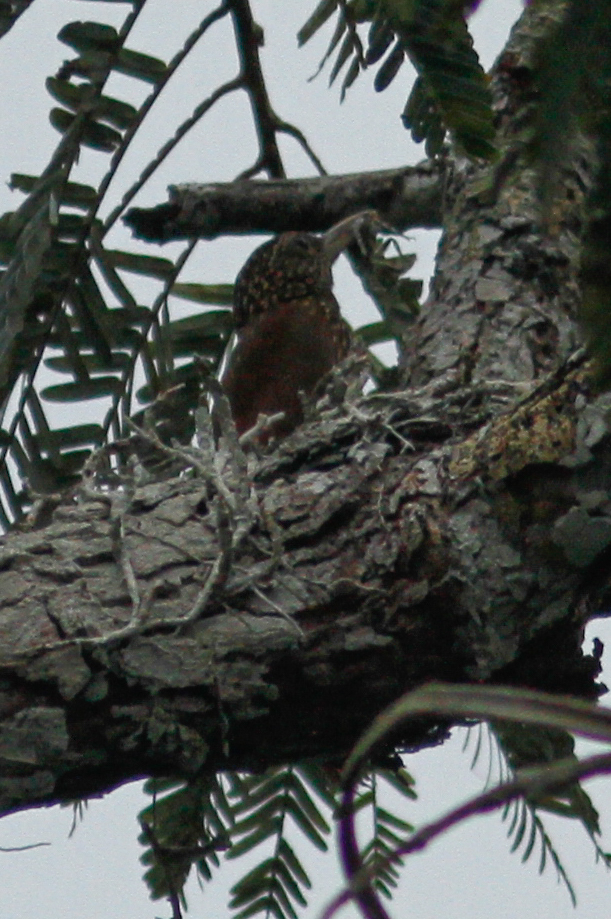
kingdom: Animalia
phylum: Chordata
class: Aves
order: Passeriformes
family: Furnariidae
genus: Xiphorhynchus
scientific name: Xiphorhynchus picus
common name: Straight-billed woodcreeper
